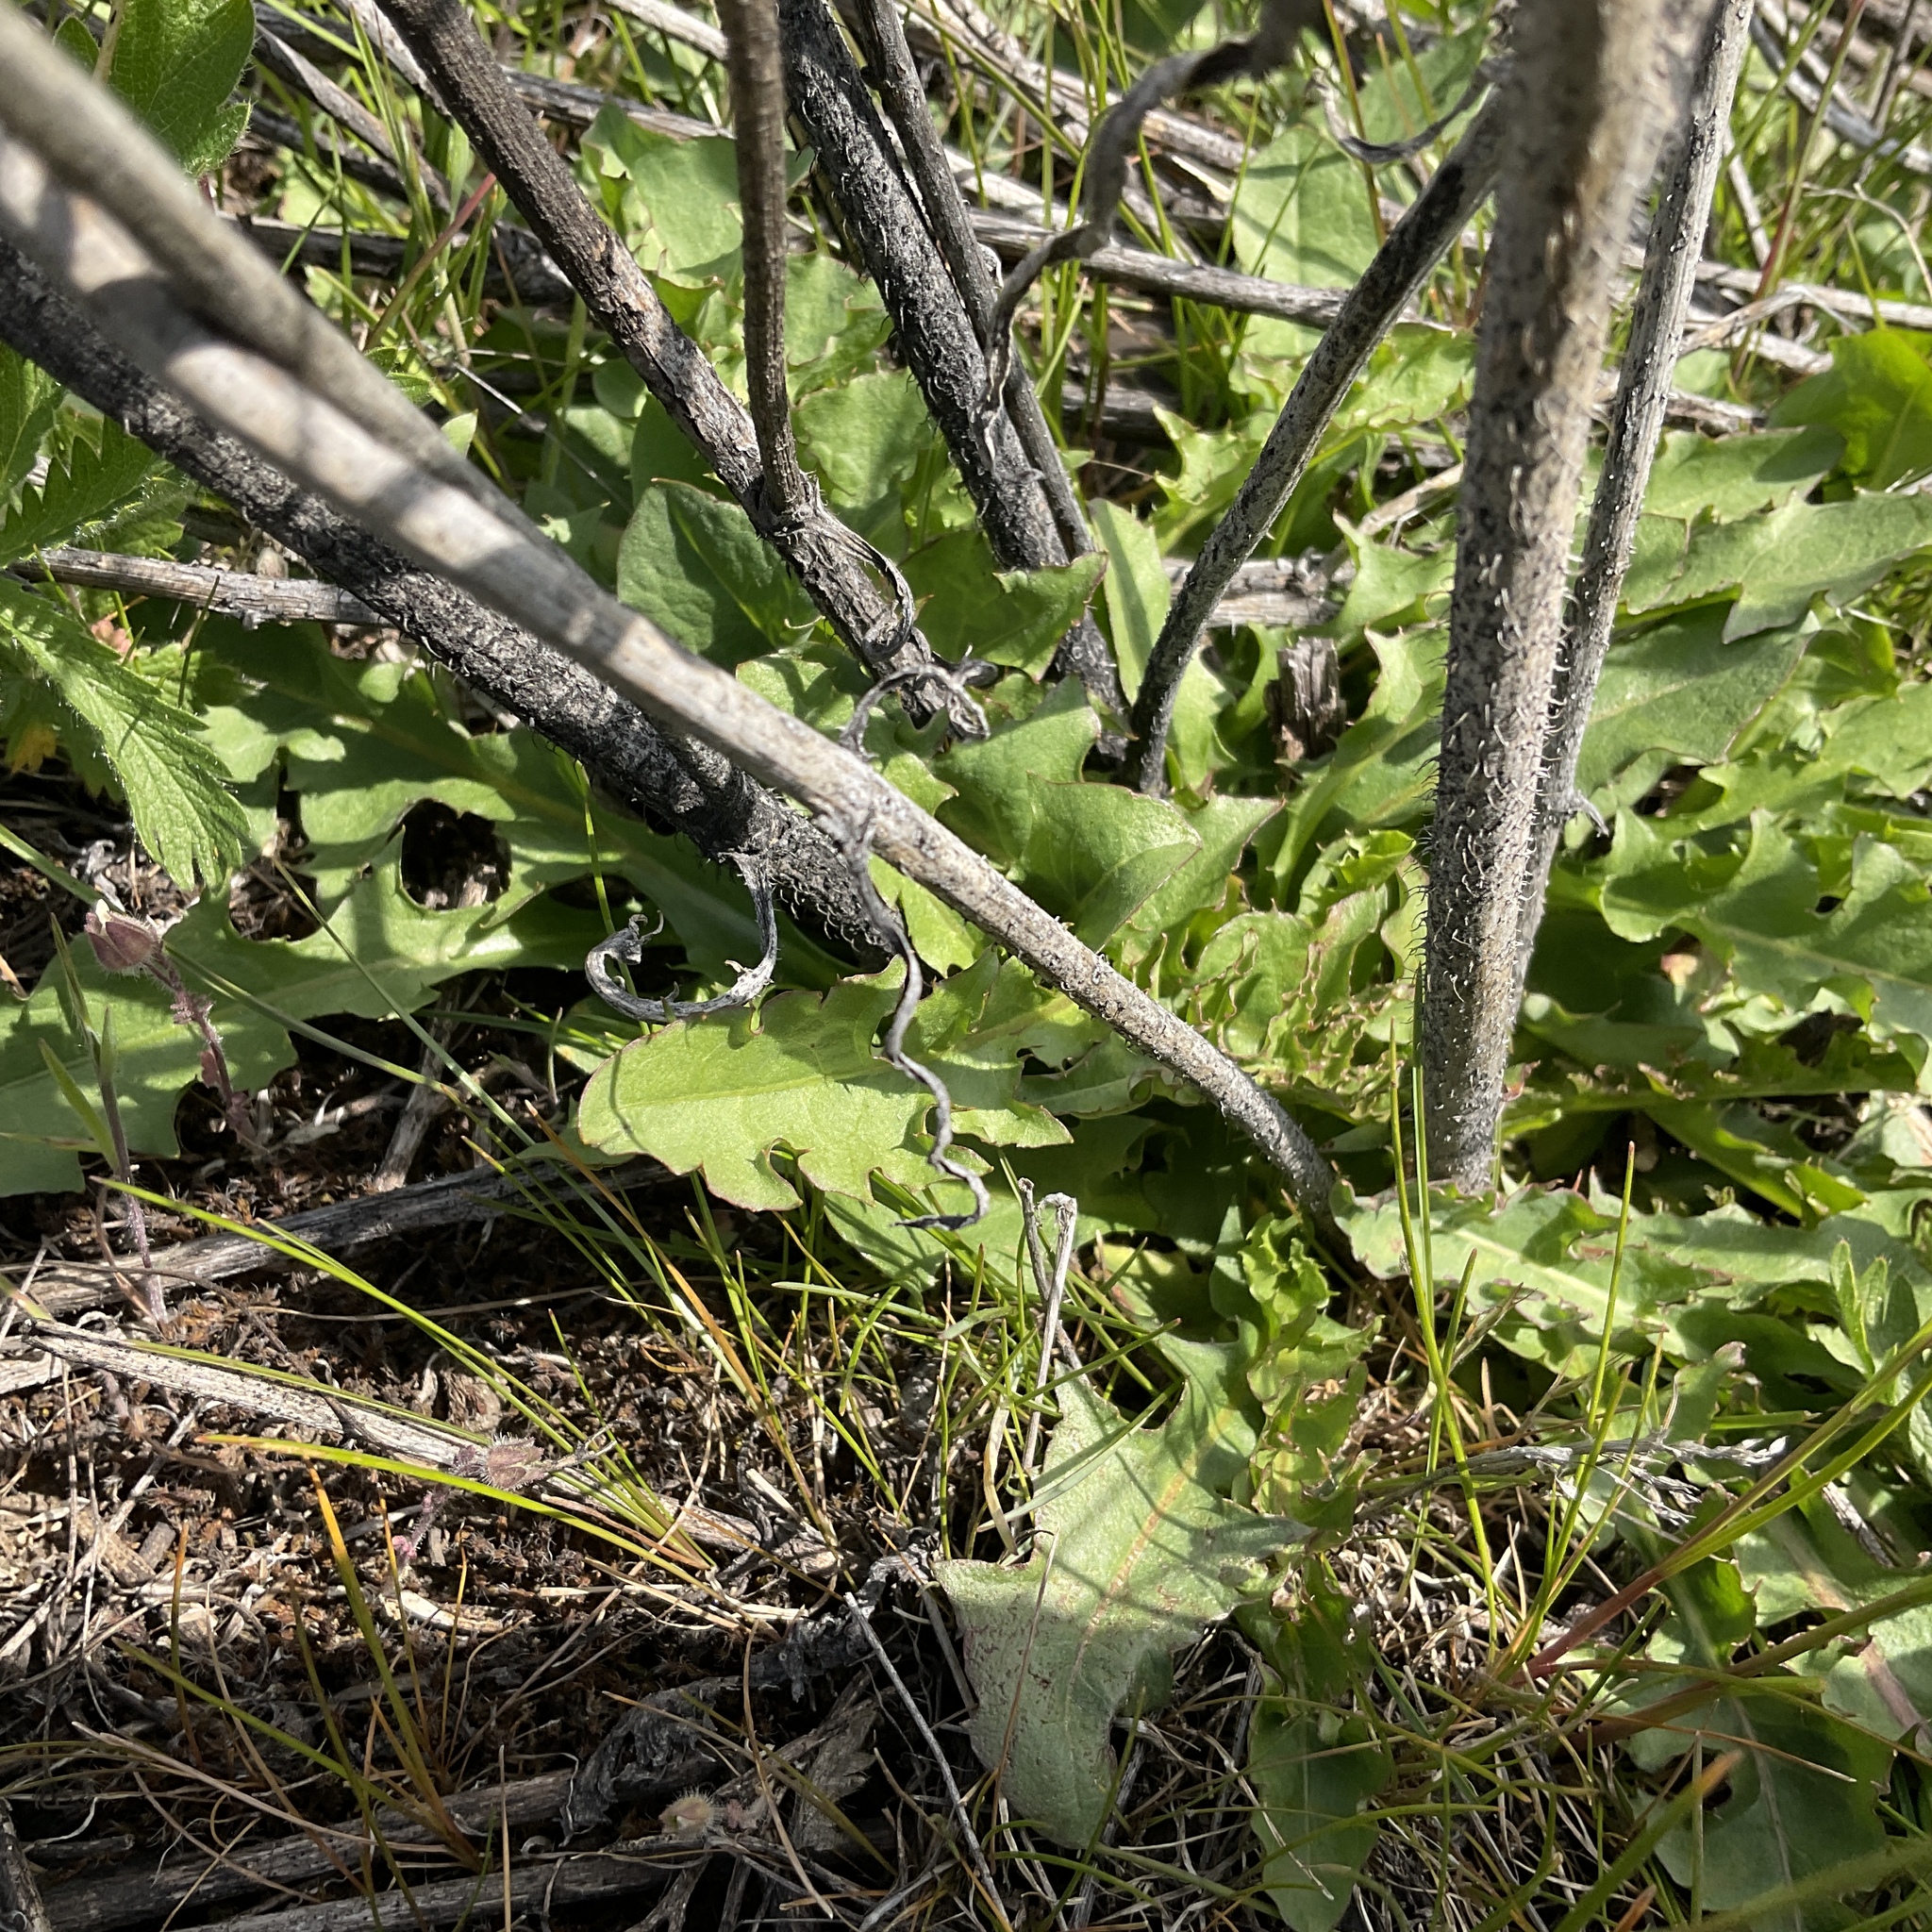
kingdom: Plantae
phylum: Tracheophyta
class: Magnoliopsida
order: Asterales
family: Asteraceae
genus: Chondrilla
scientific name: Chondrilla juncea
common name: Skeleton weed
